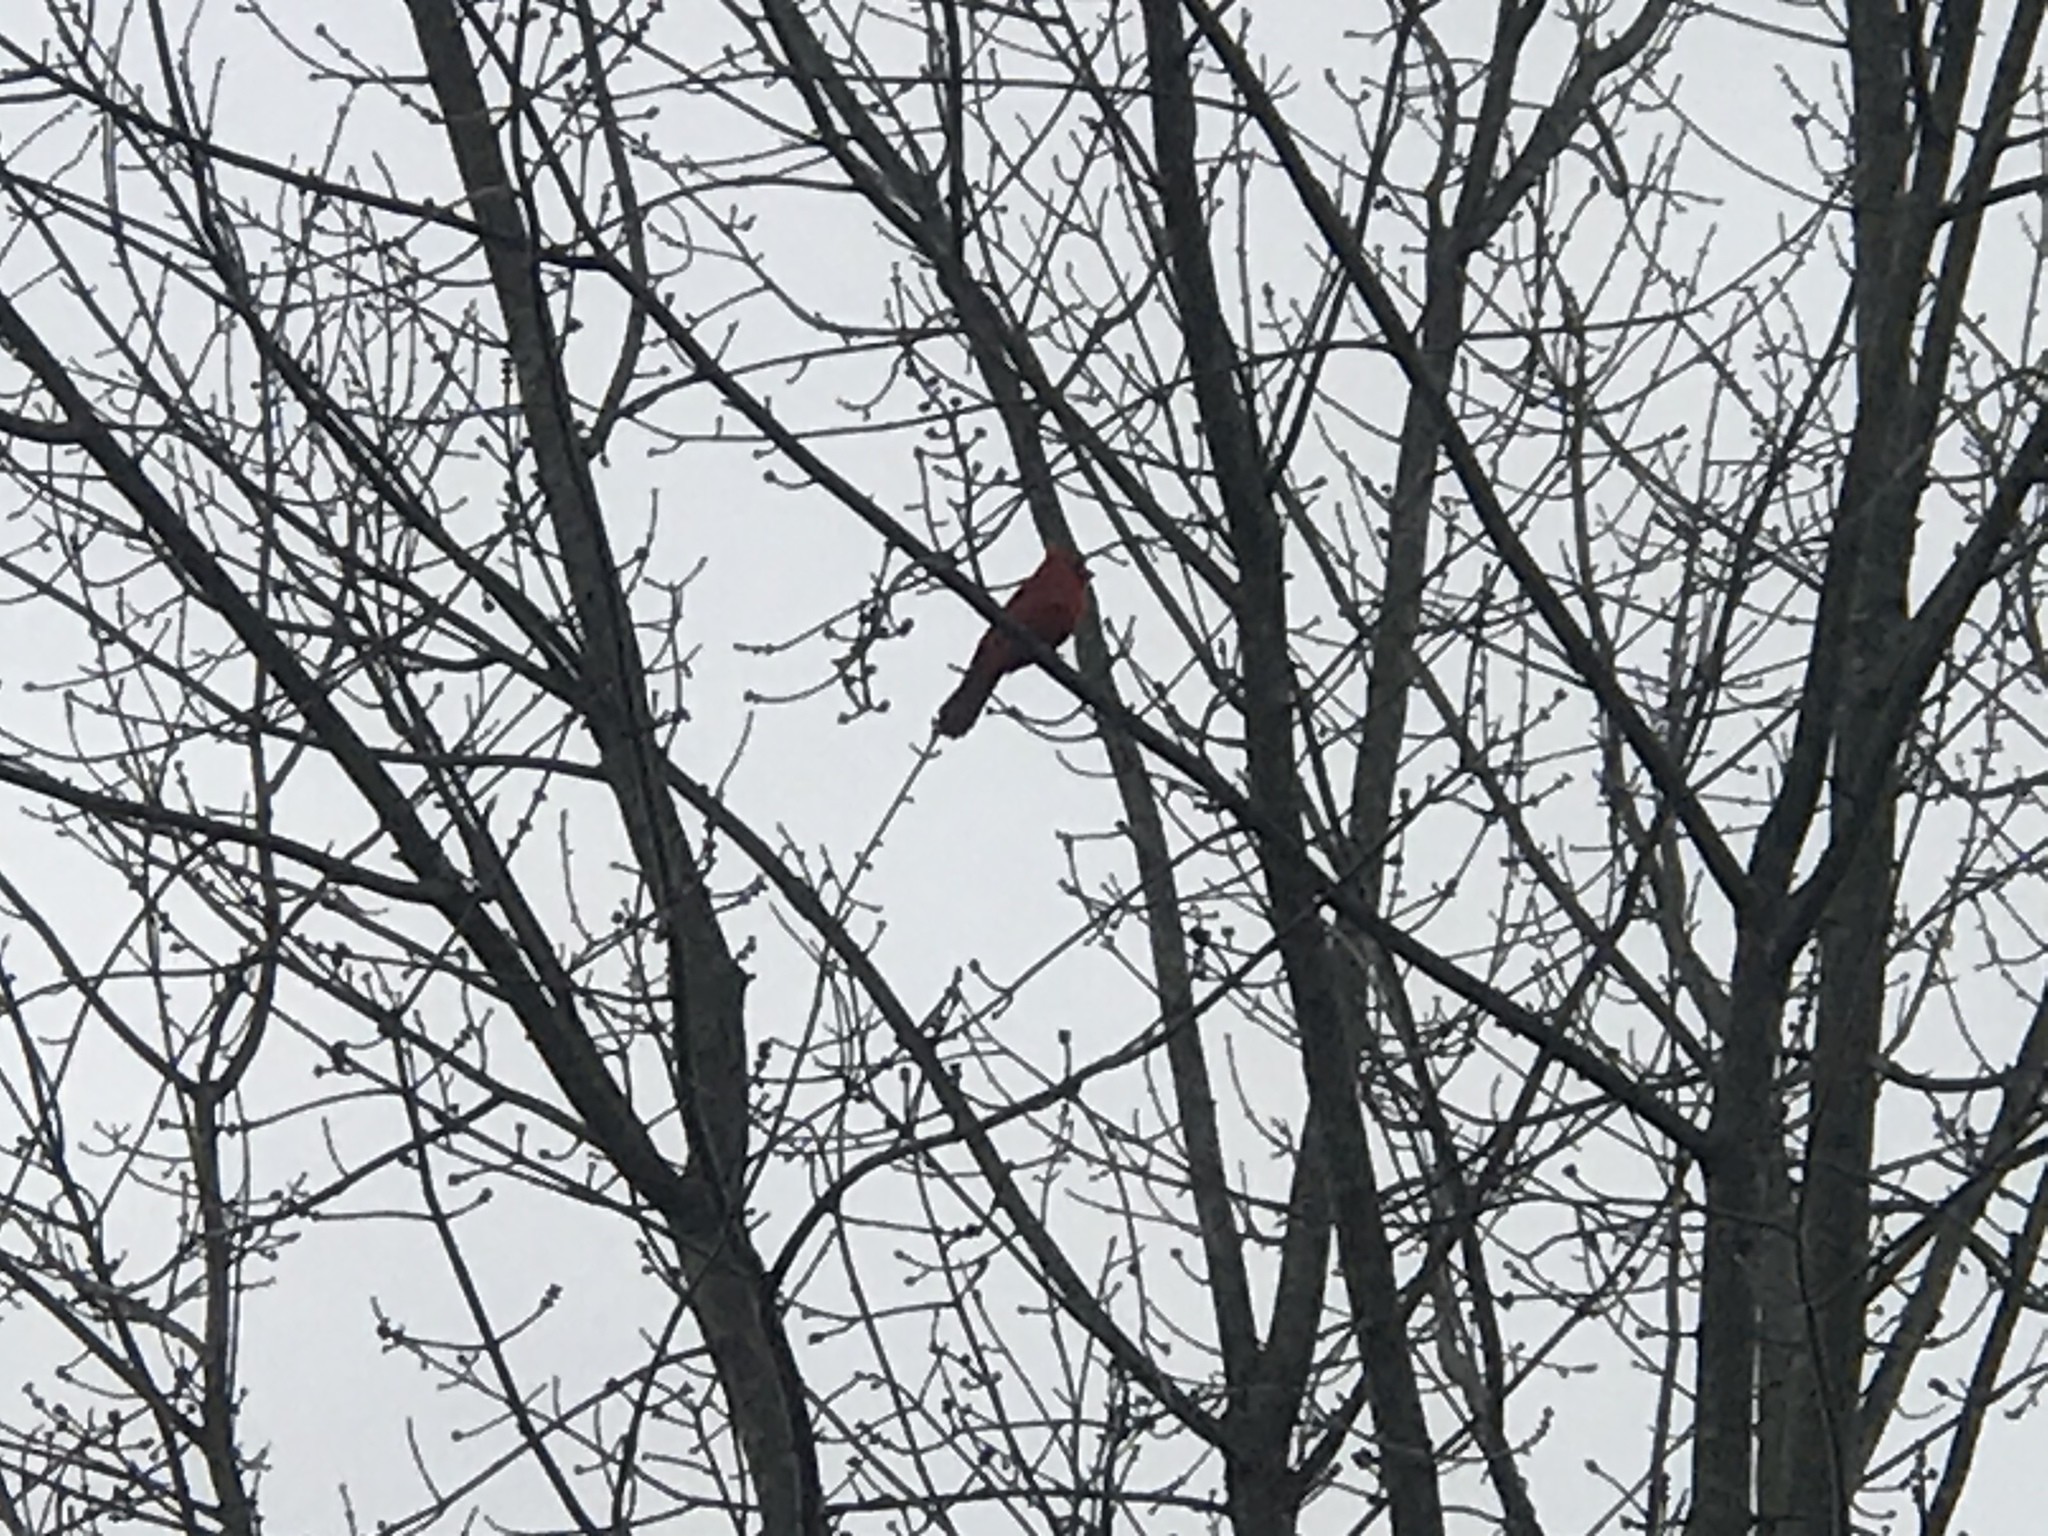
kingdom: Animalia
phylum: Chordata
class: Aves
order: Passeriformes
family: Cardinalidae
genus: Cardinalis
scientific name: Cardinalis cardinalis
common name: Northern cardinal
